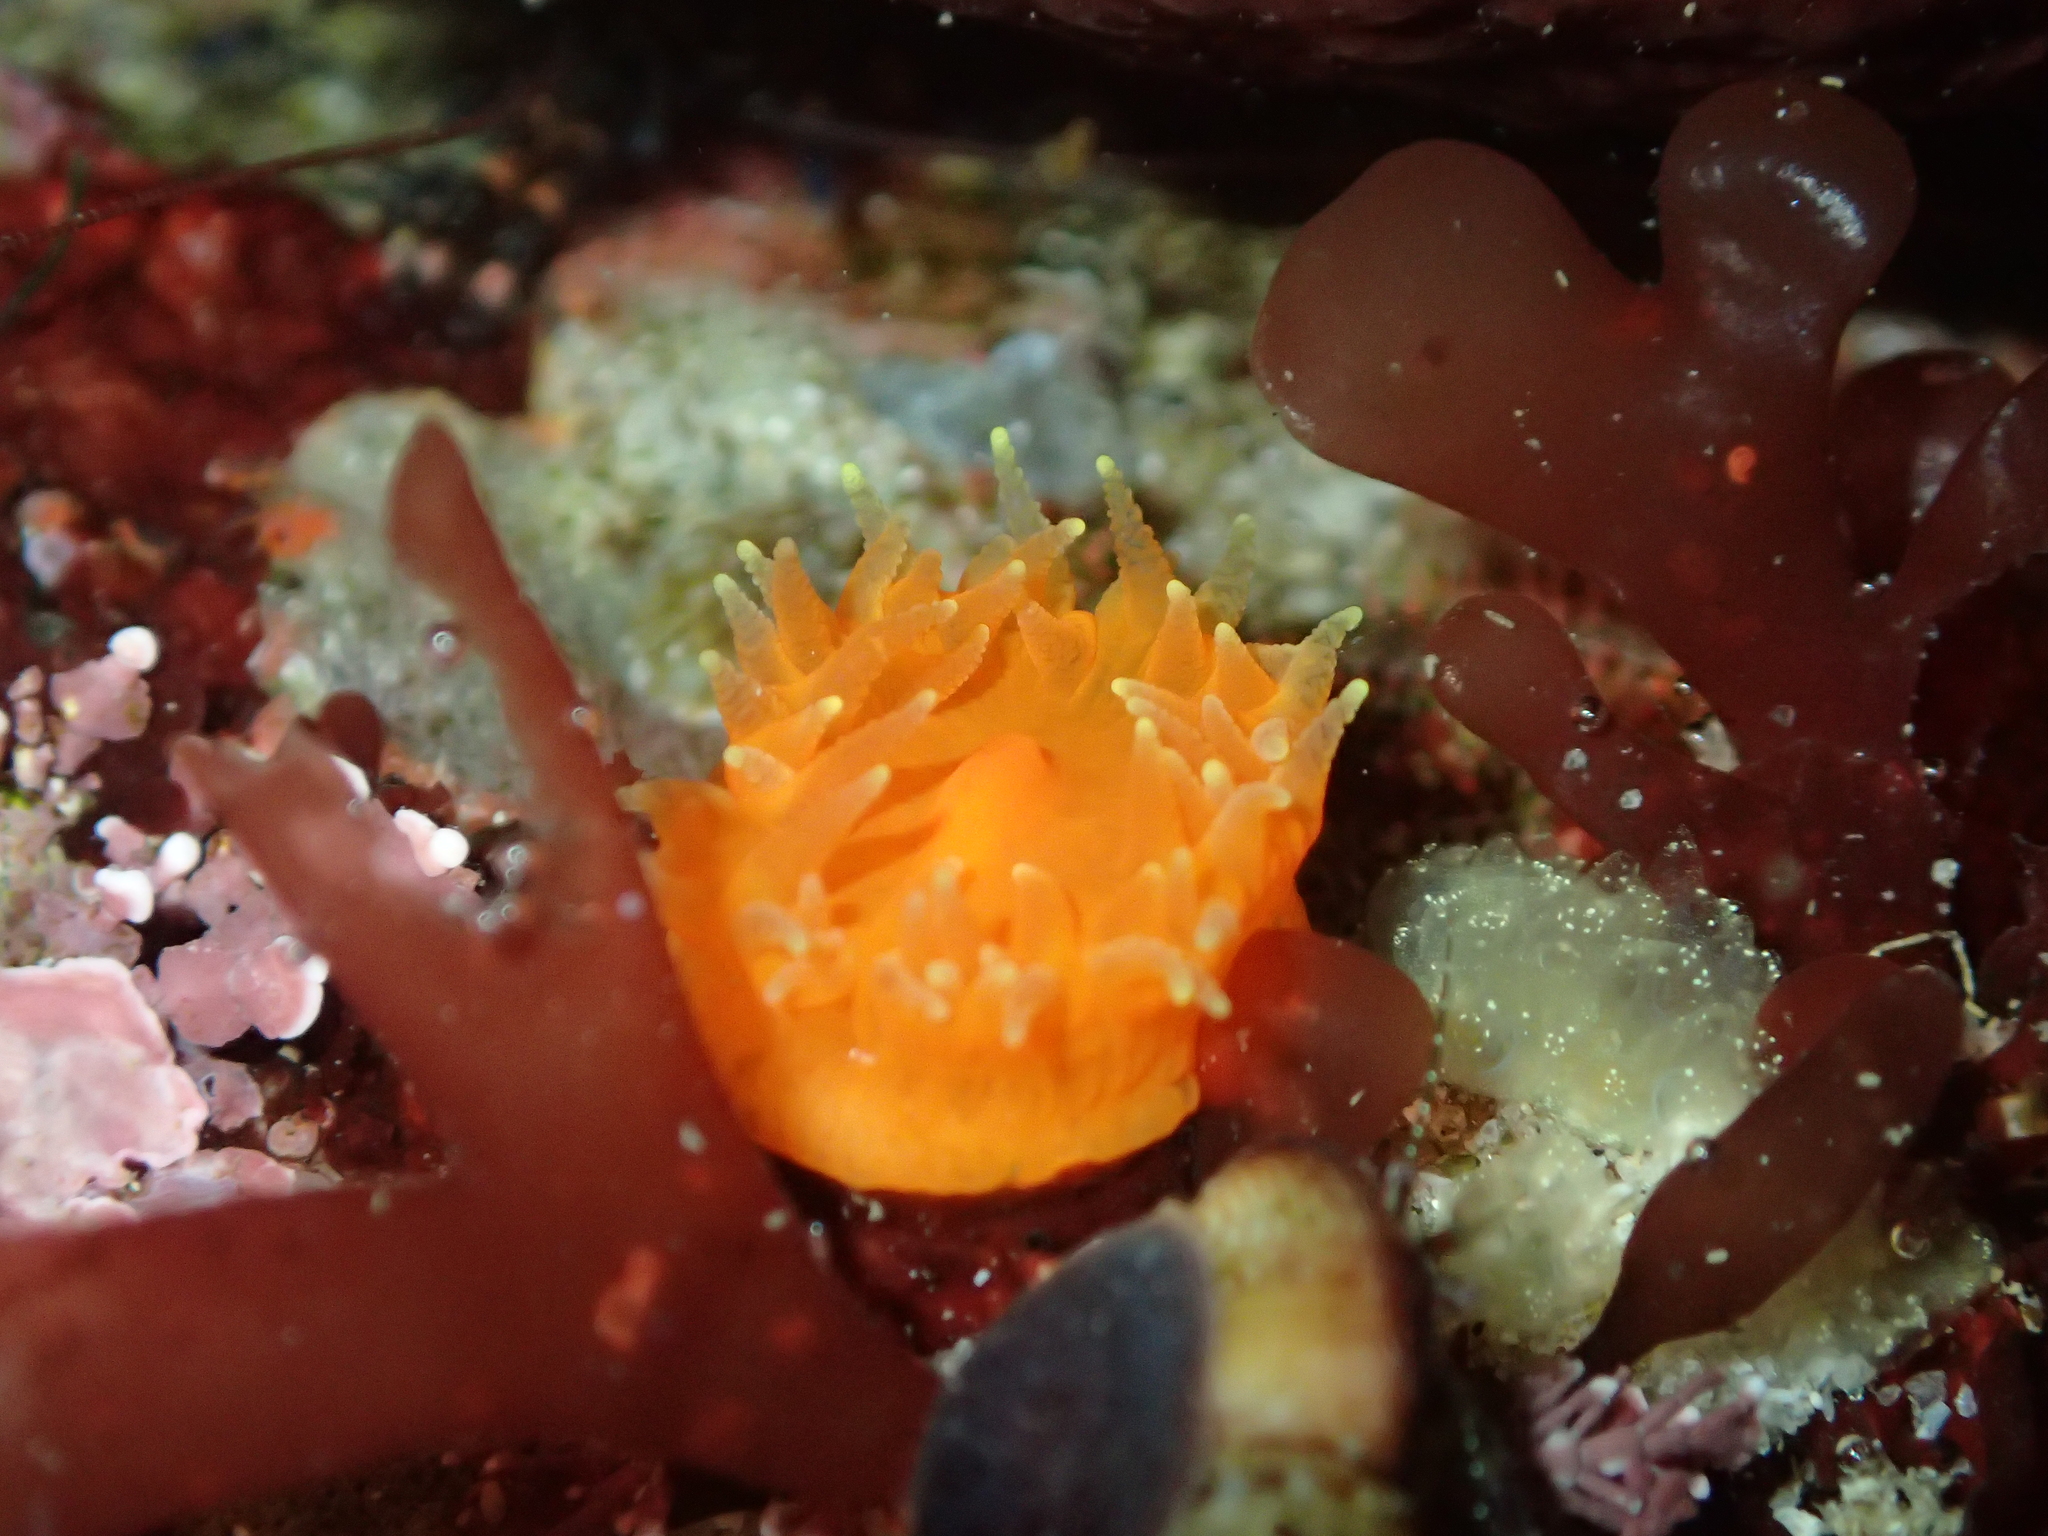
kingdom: Animalia
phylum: Cnidaria
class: Anthozoa
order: Scleractinia
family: Dendrophylliidae
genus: Balanophyllia
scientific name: Balanophyllia elegans
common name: Orange stony coral
